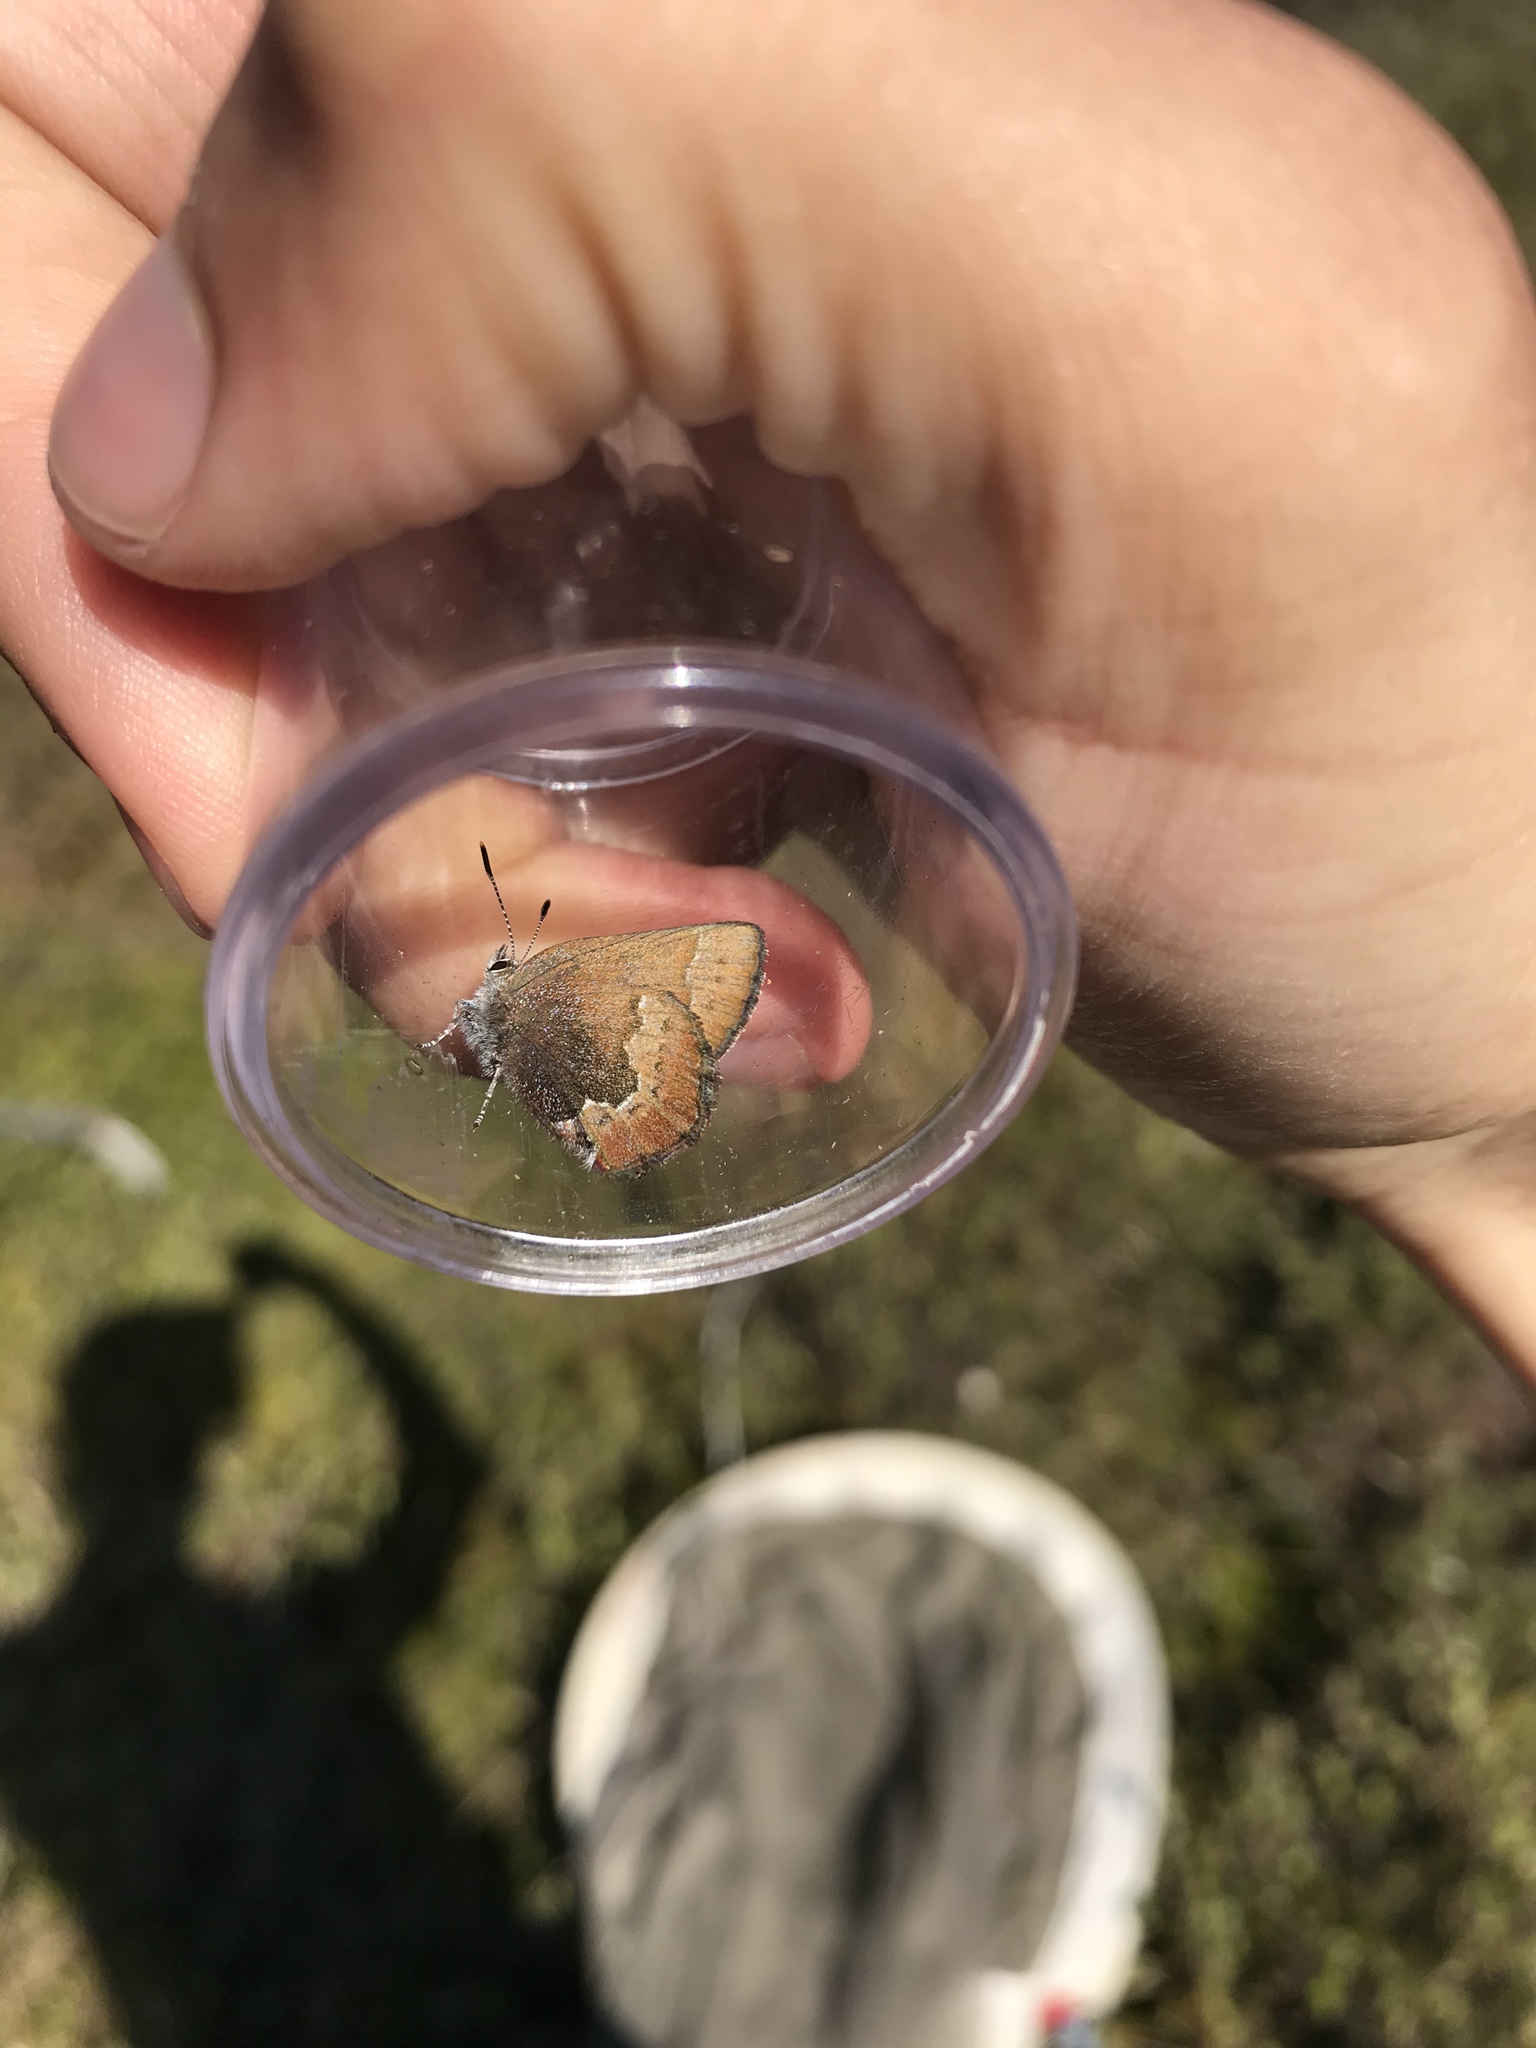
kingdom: Animalia
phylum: Arthropoda
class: Insecta
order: Lepidoptera
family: Lycaenidae
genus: Incisalia
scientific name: Incisalia irioides
